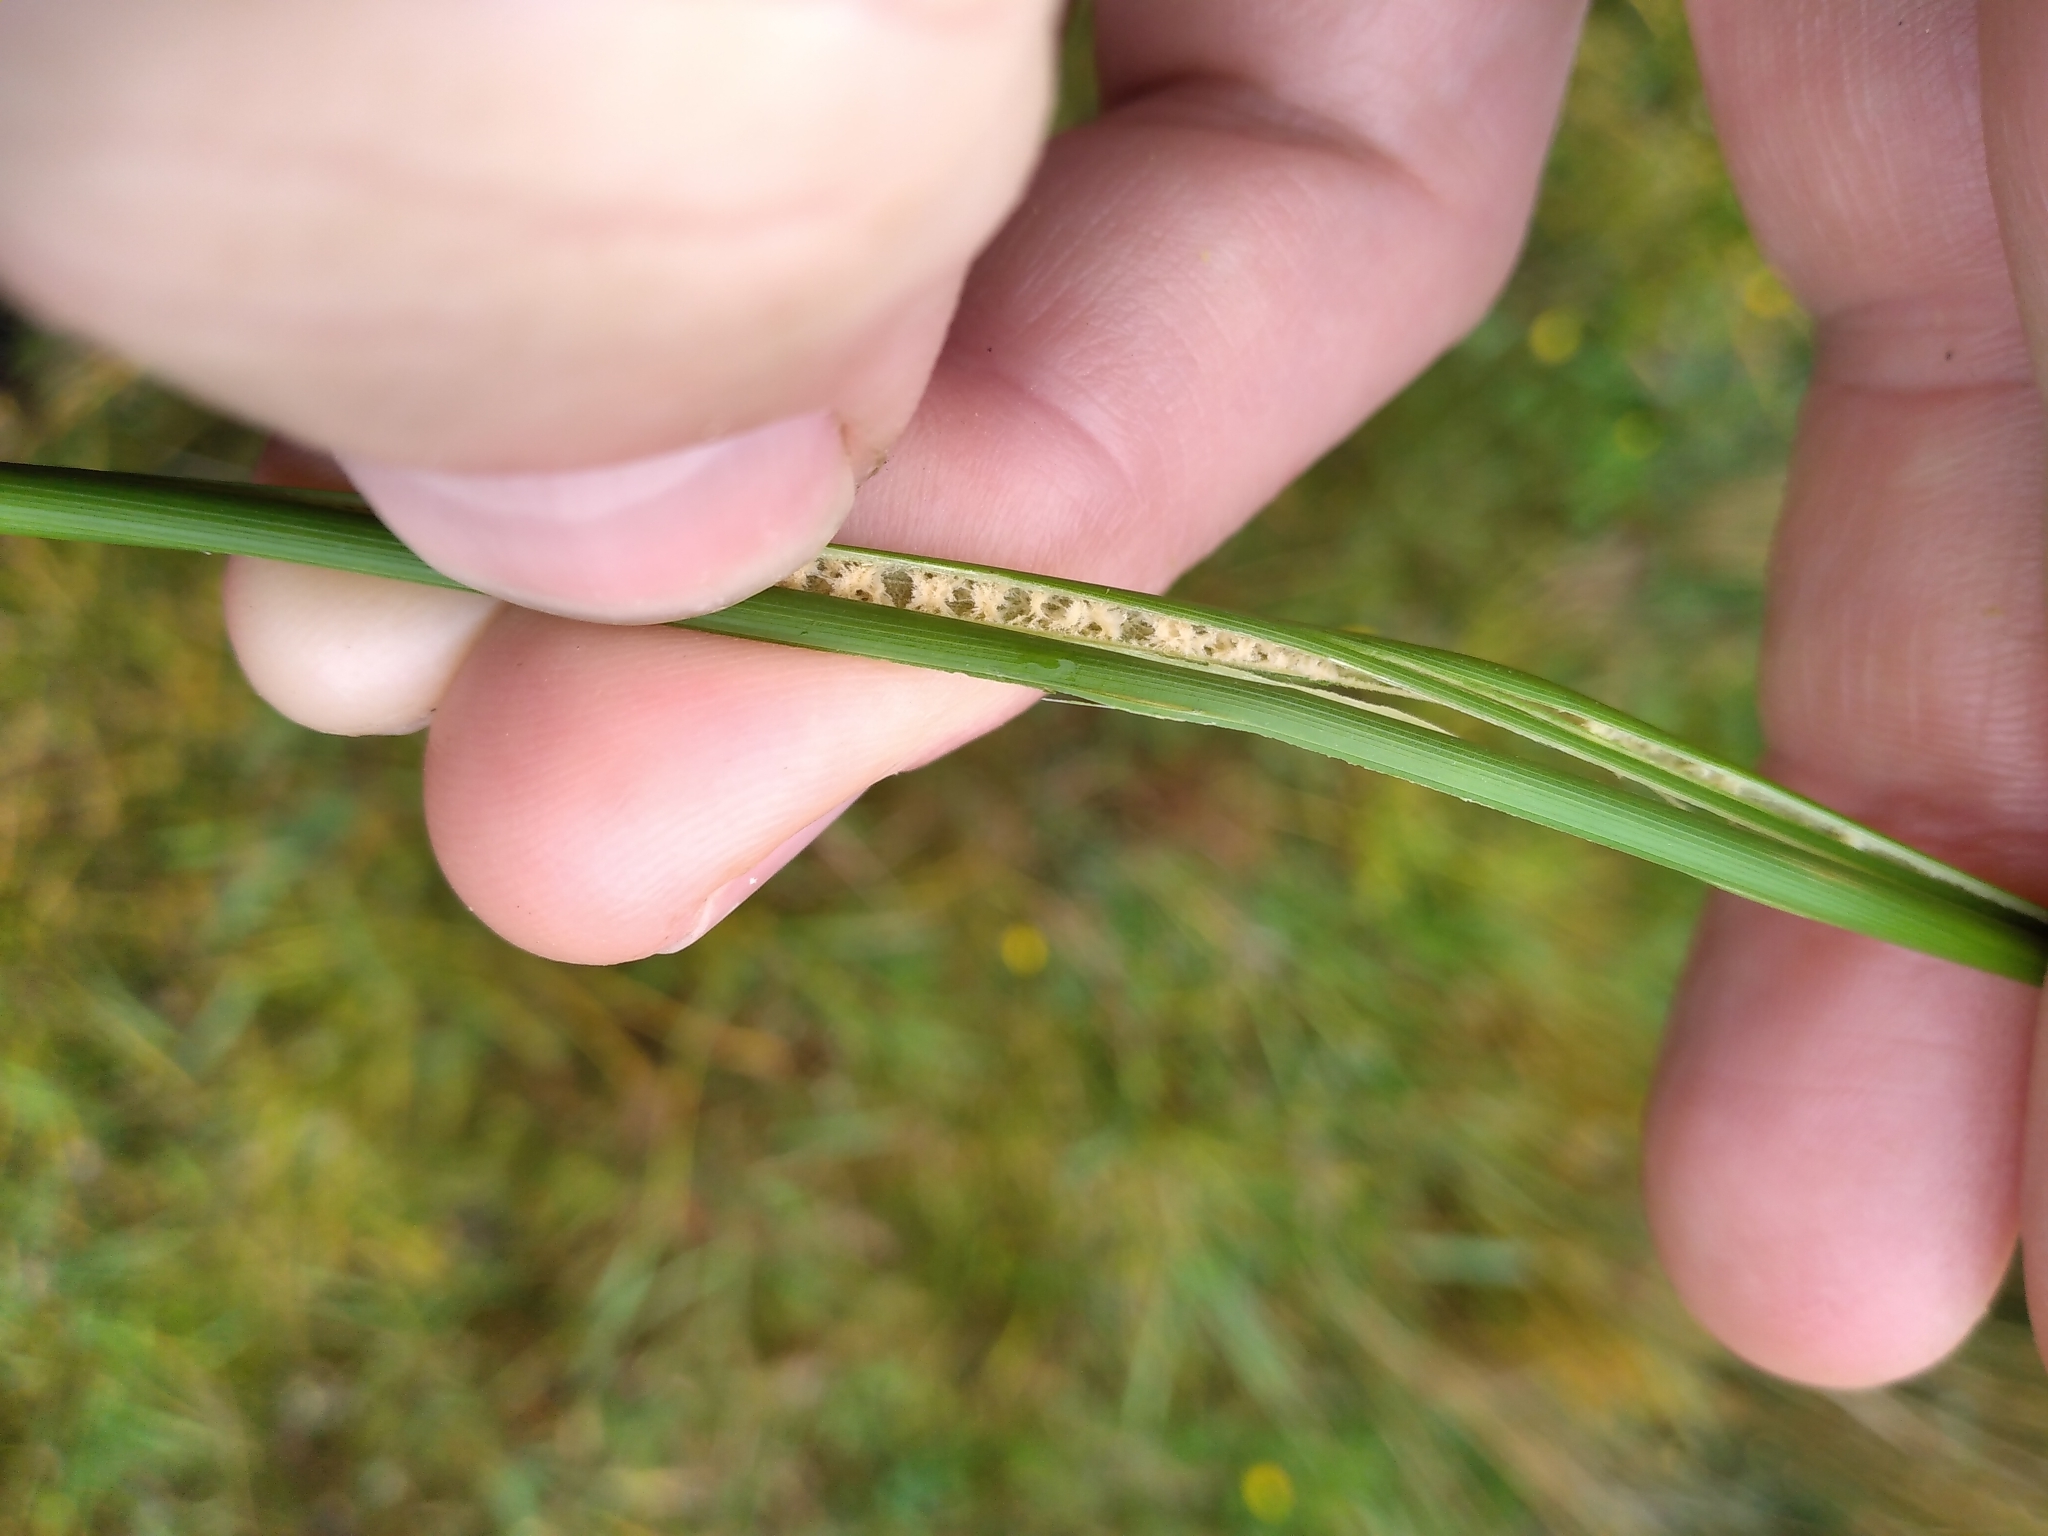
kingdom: Plantae
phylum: Tracheophyta
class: Liliopsida
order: Poales
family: Juncaceae
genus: Juncus
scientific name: Juncus sarophorus
